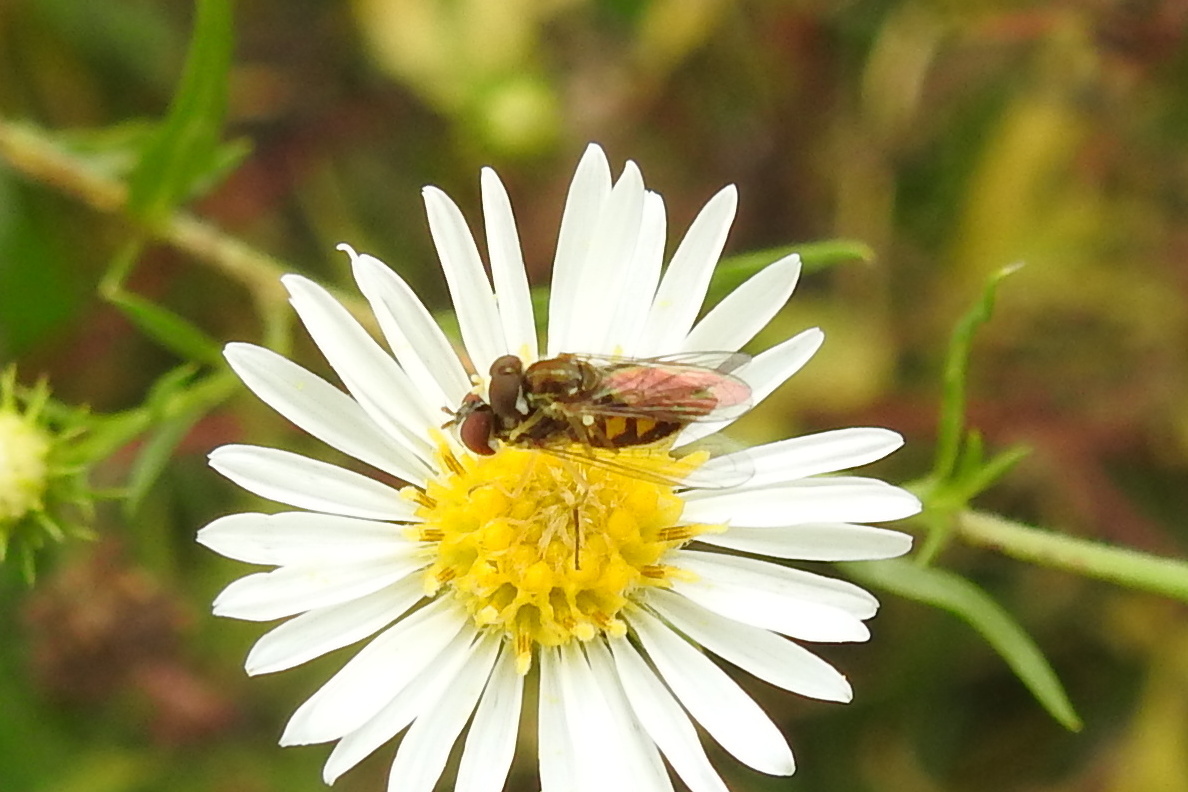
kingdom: Animalia
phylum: Arthropoda
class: Insecta
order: Diptera
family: Syrphidae
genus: Toxomerus
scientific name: Toxomerus marginatus
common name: Syrphid fly
